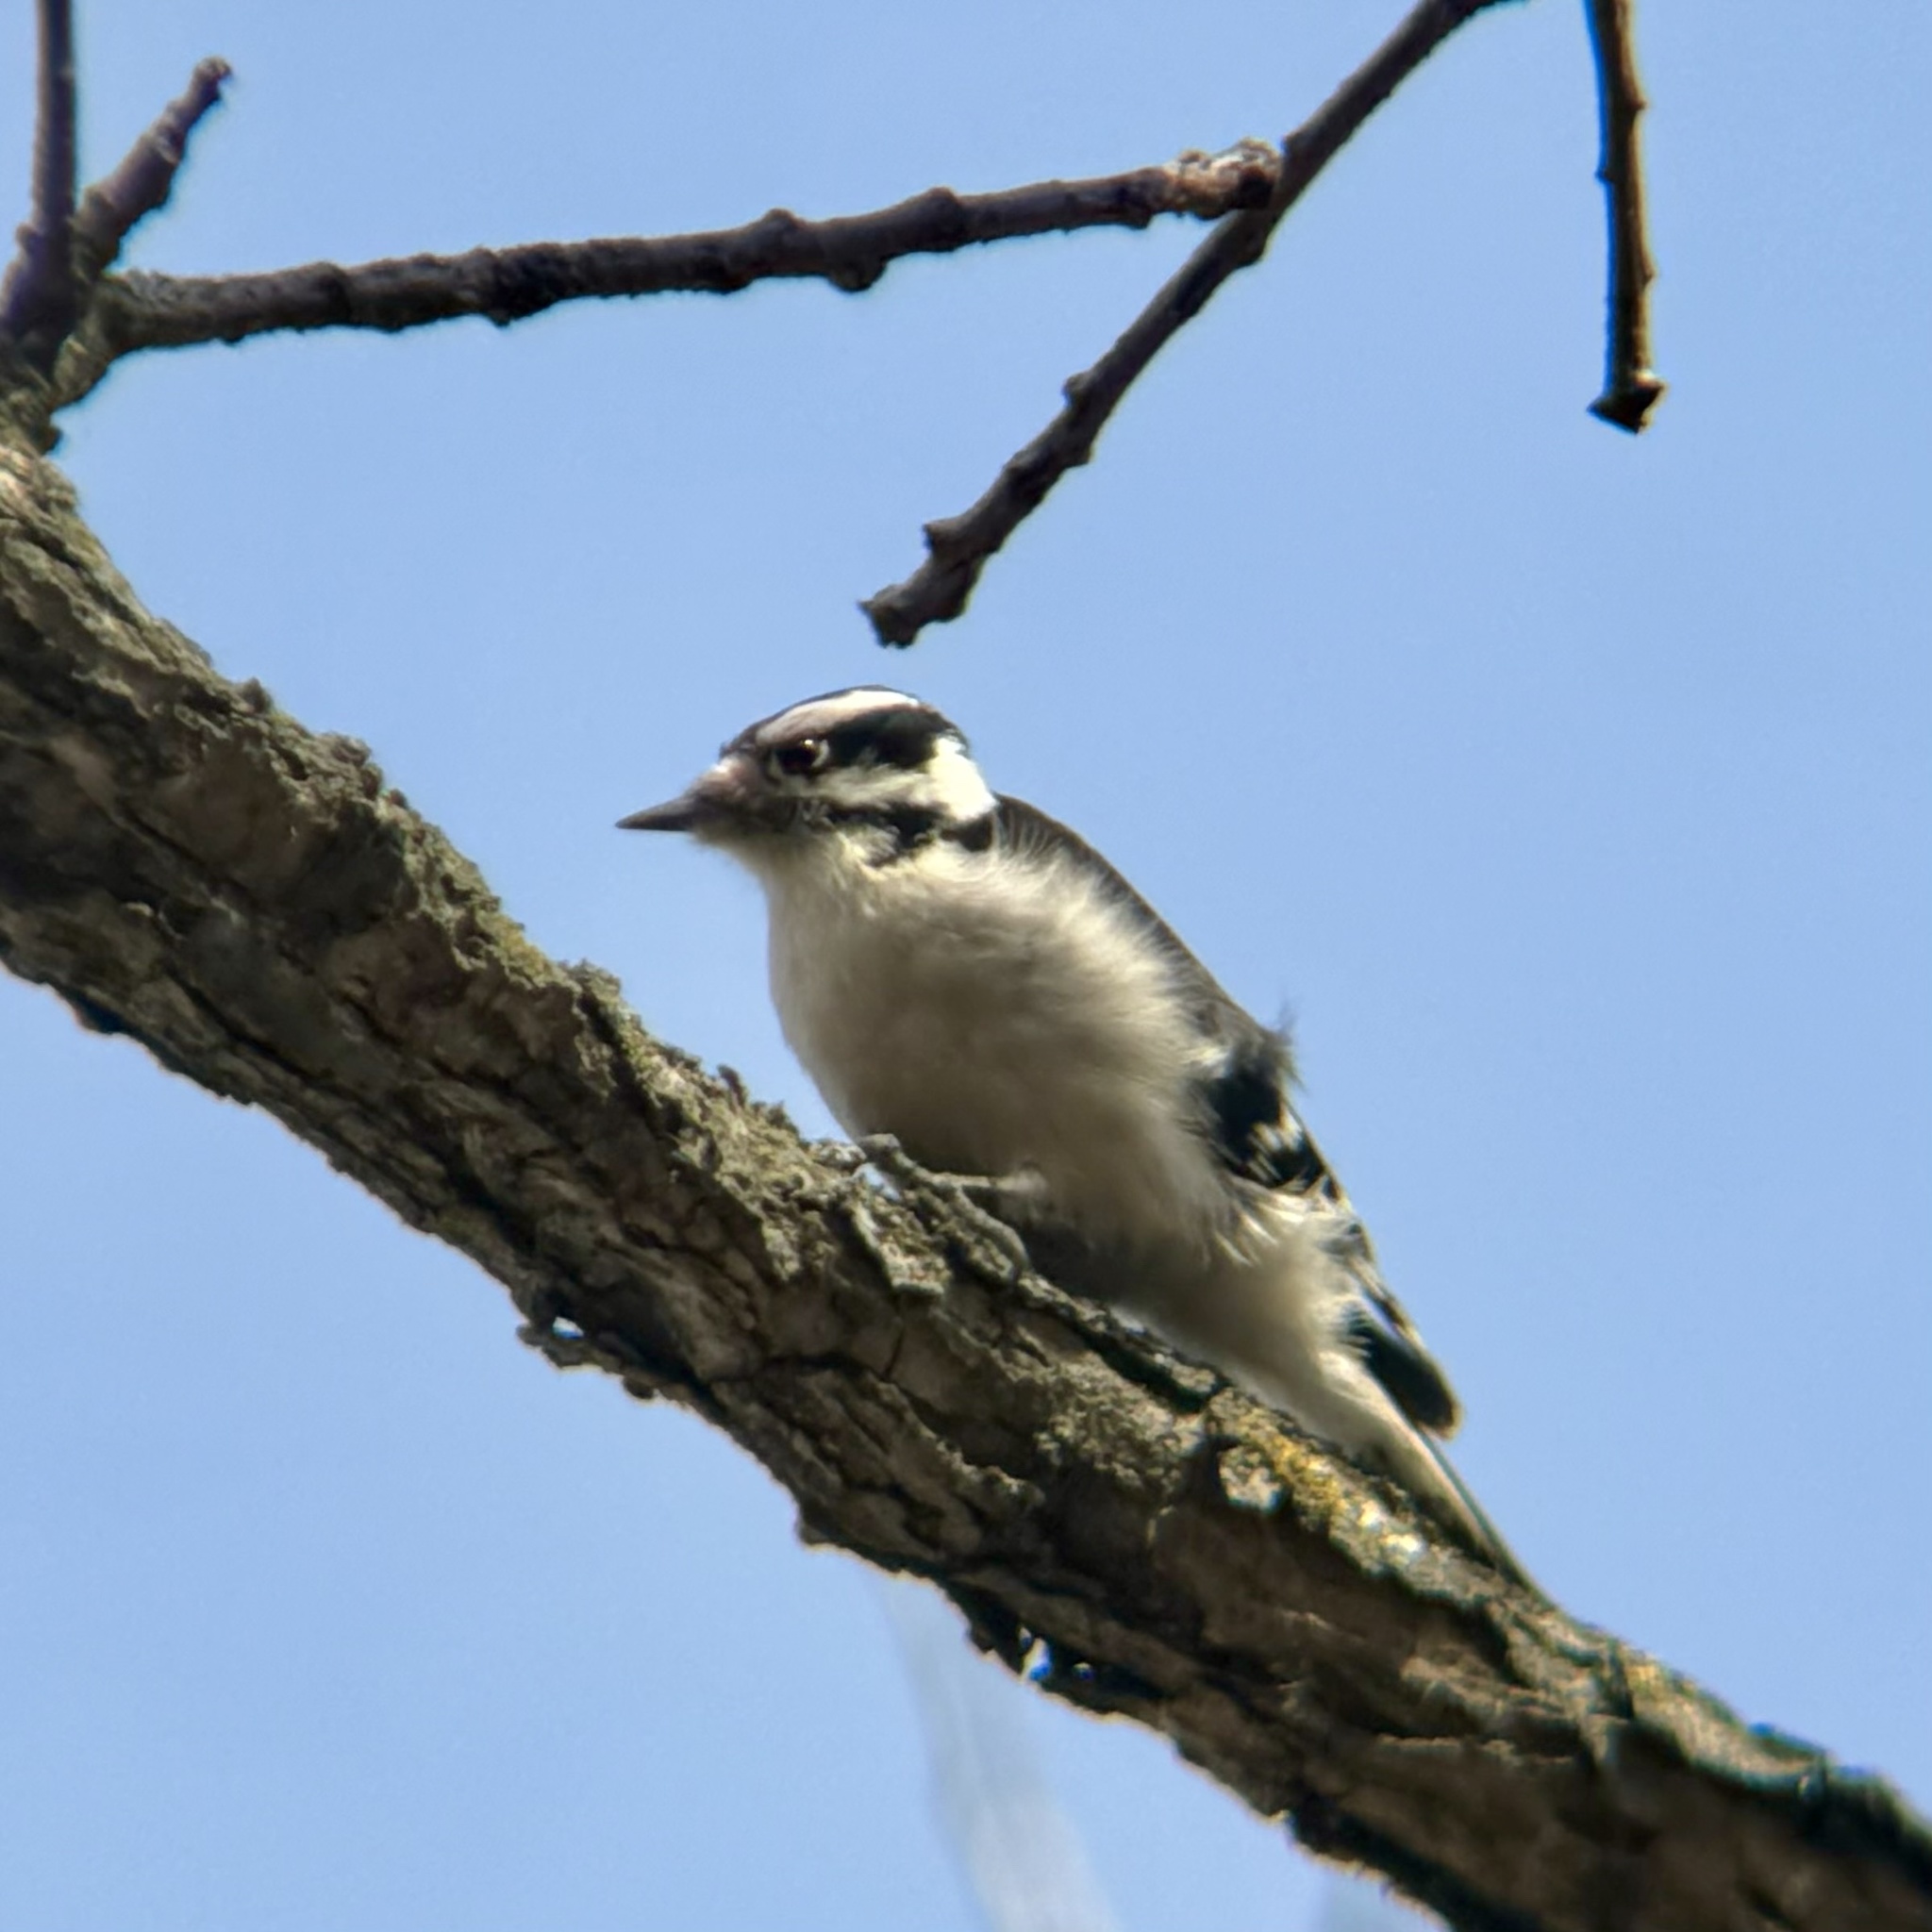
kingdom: Animalia
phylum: Chordata
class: Aves
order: Piciformes
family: Picidae
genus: Dryobates
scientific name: Dryobates pubescens
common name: Downy woodpecker
